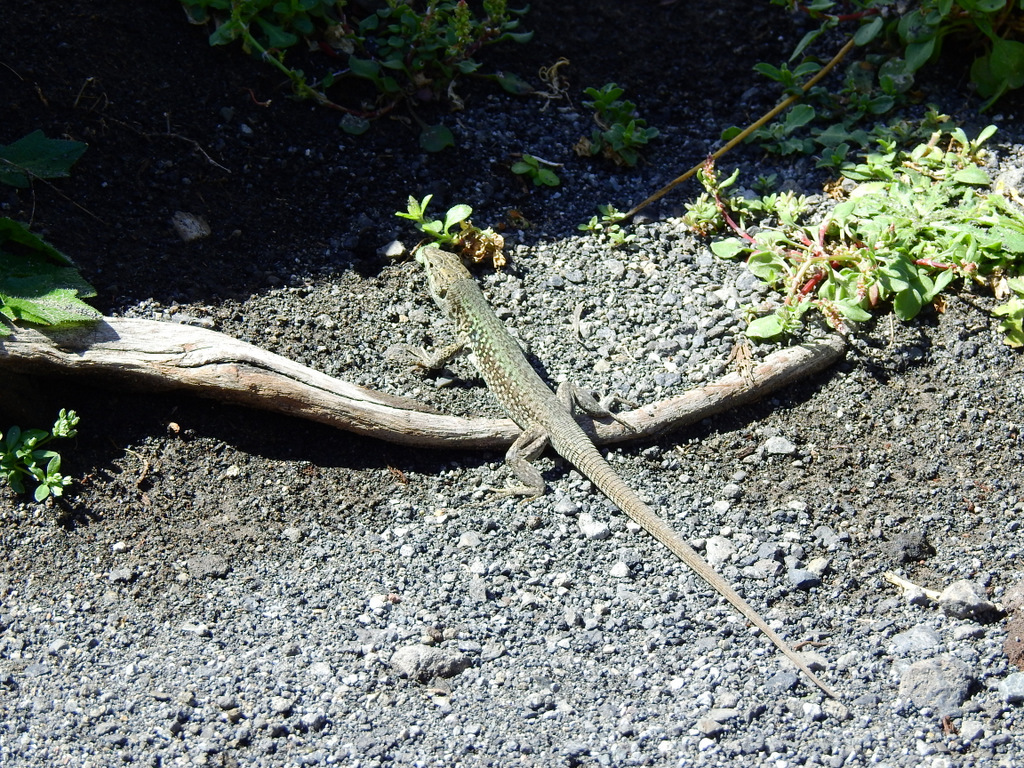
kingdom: Animalia
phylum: Chordata
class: Squamata
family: Lacertidae
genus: Podarcis
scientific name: Podarcis siculus
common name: Italian wall lizard
